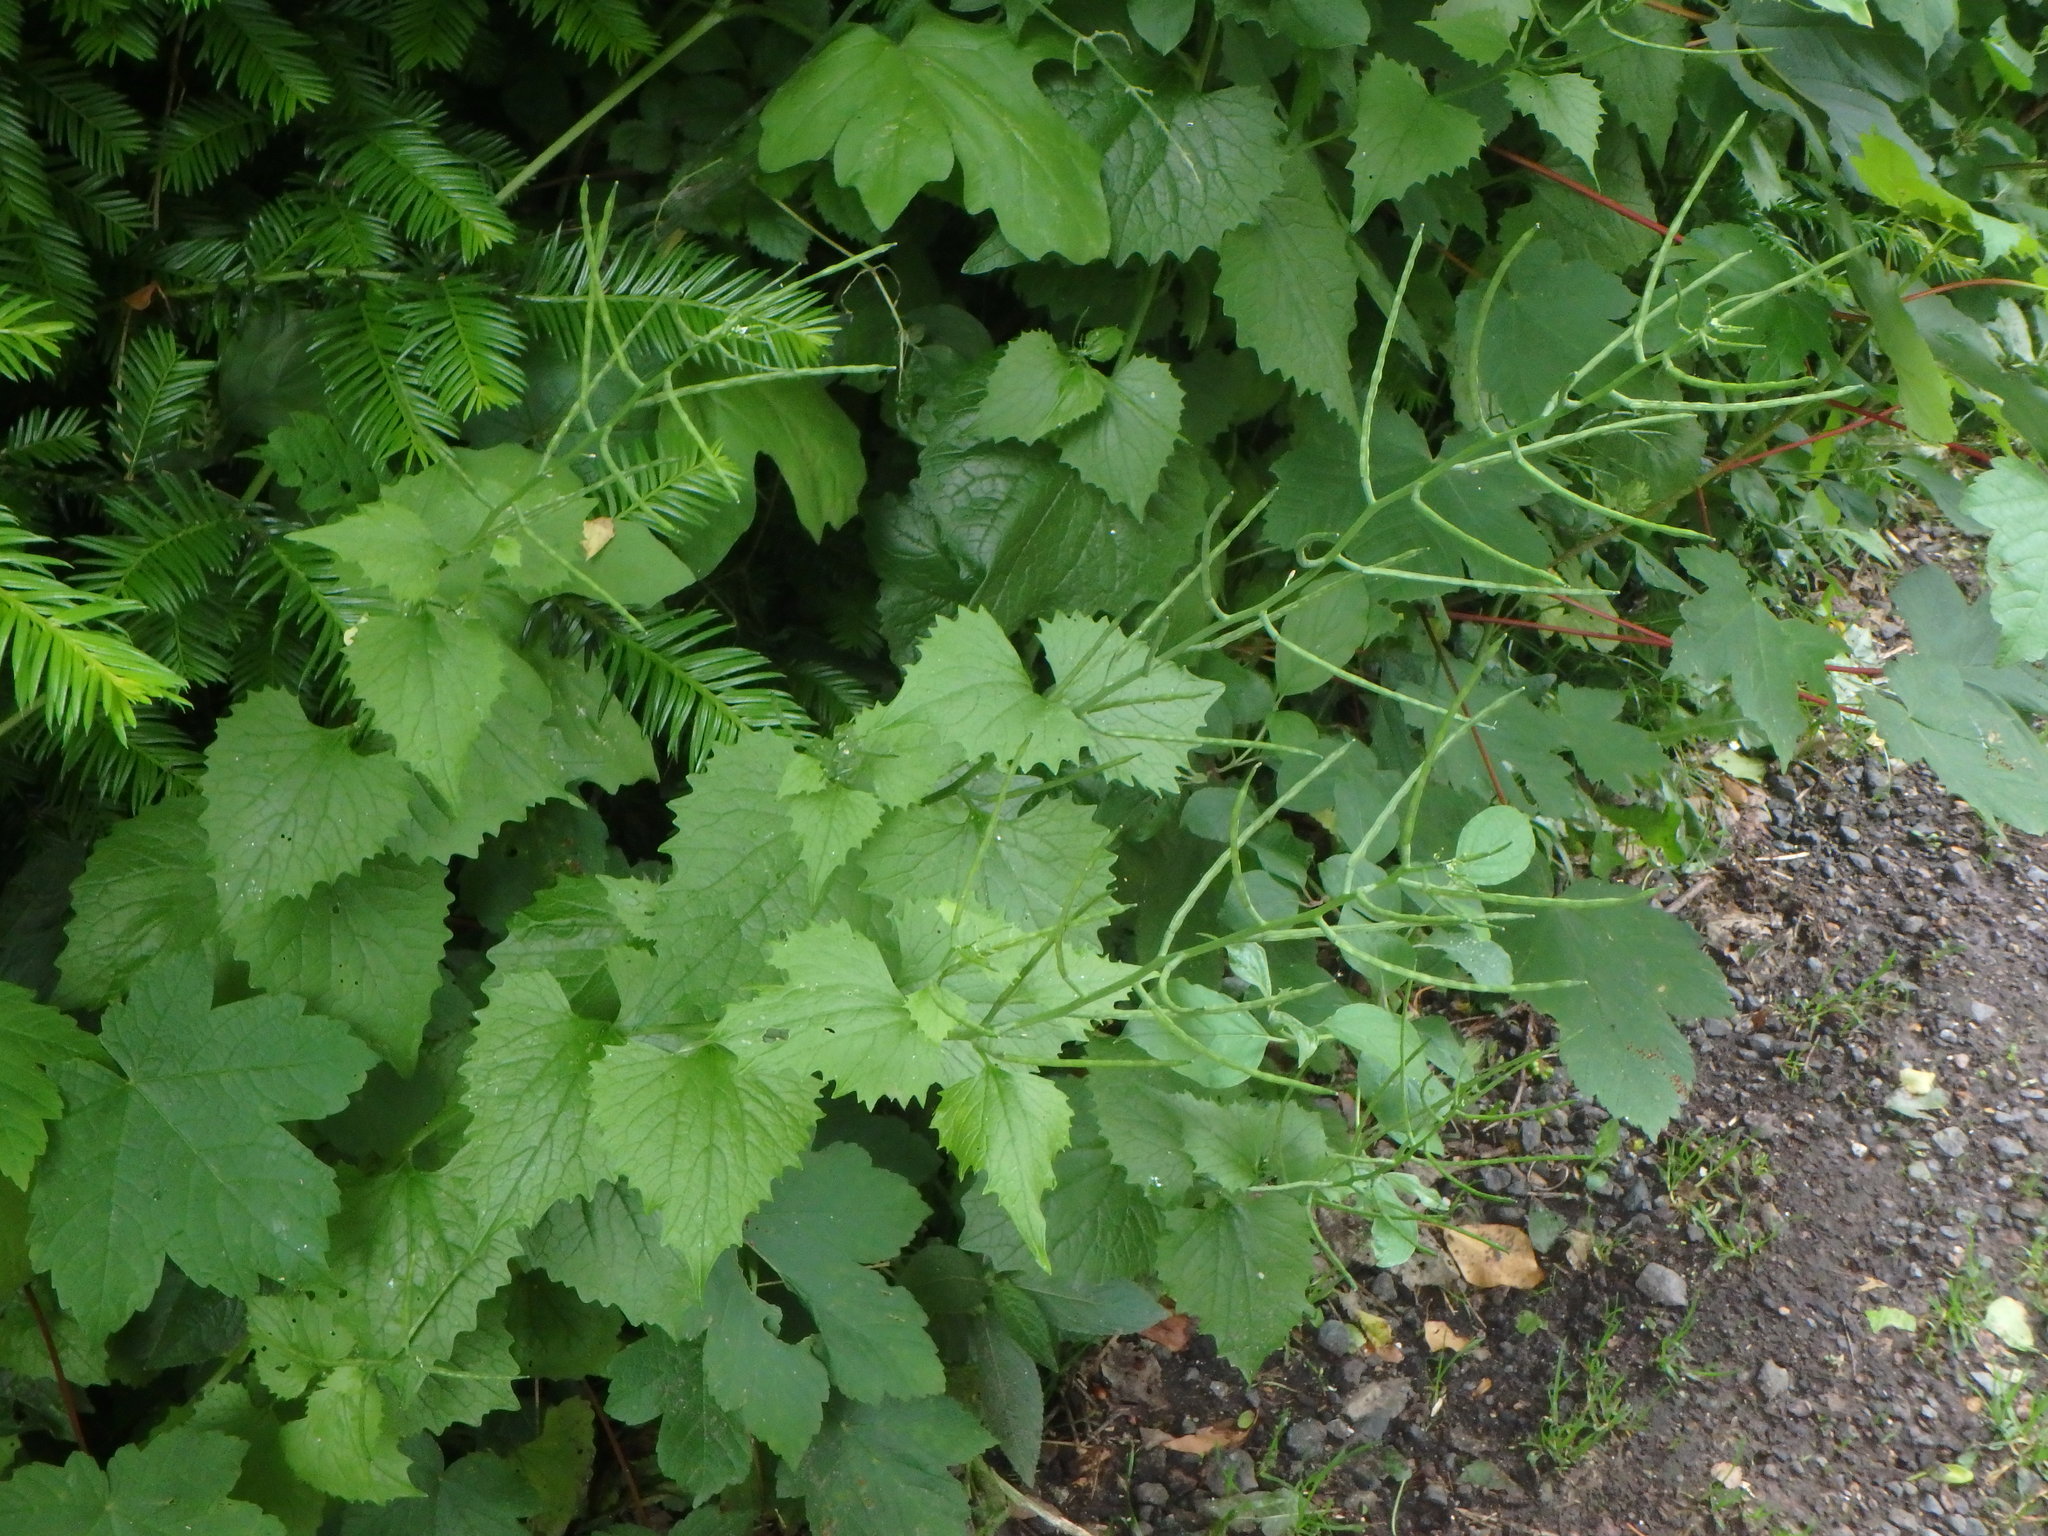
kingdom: Plantae
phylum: Tracheophyta
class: Magnoliopsida
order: Brassicales
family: Brassicaceae
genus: Alliaria
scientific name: Alliaria petiolata
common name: Garlic mustard
